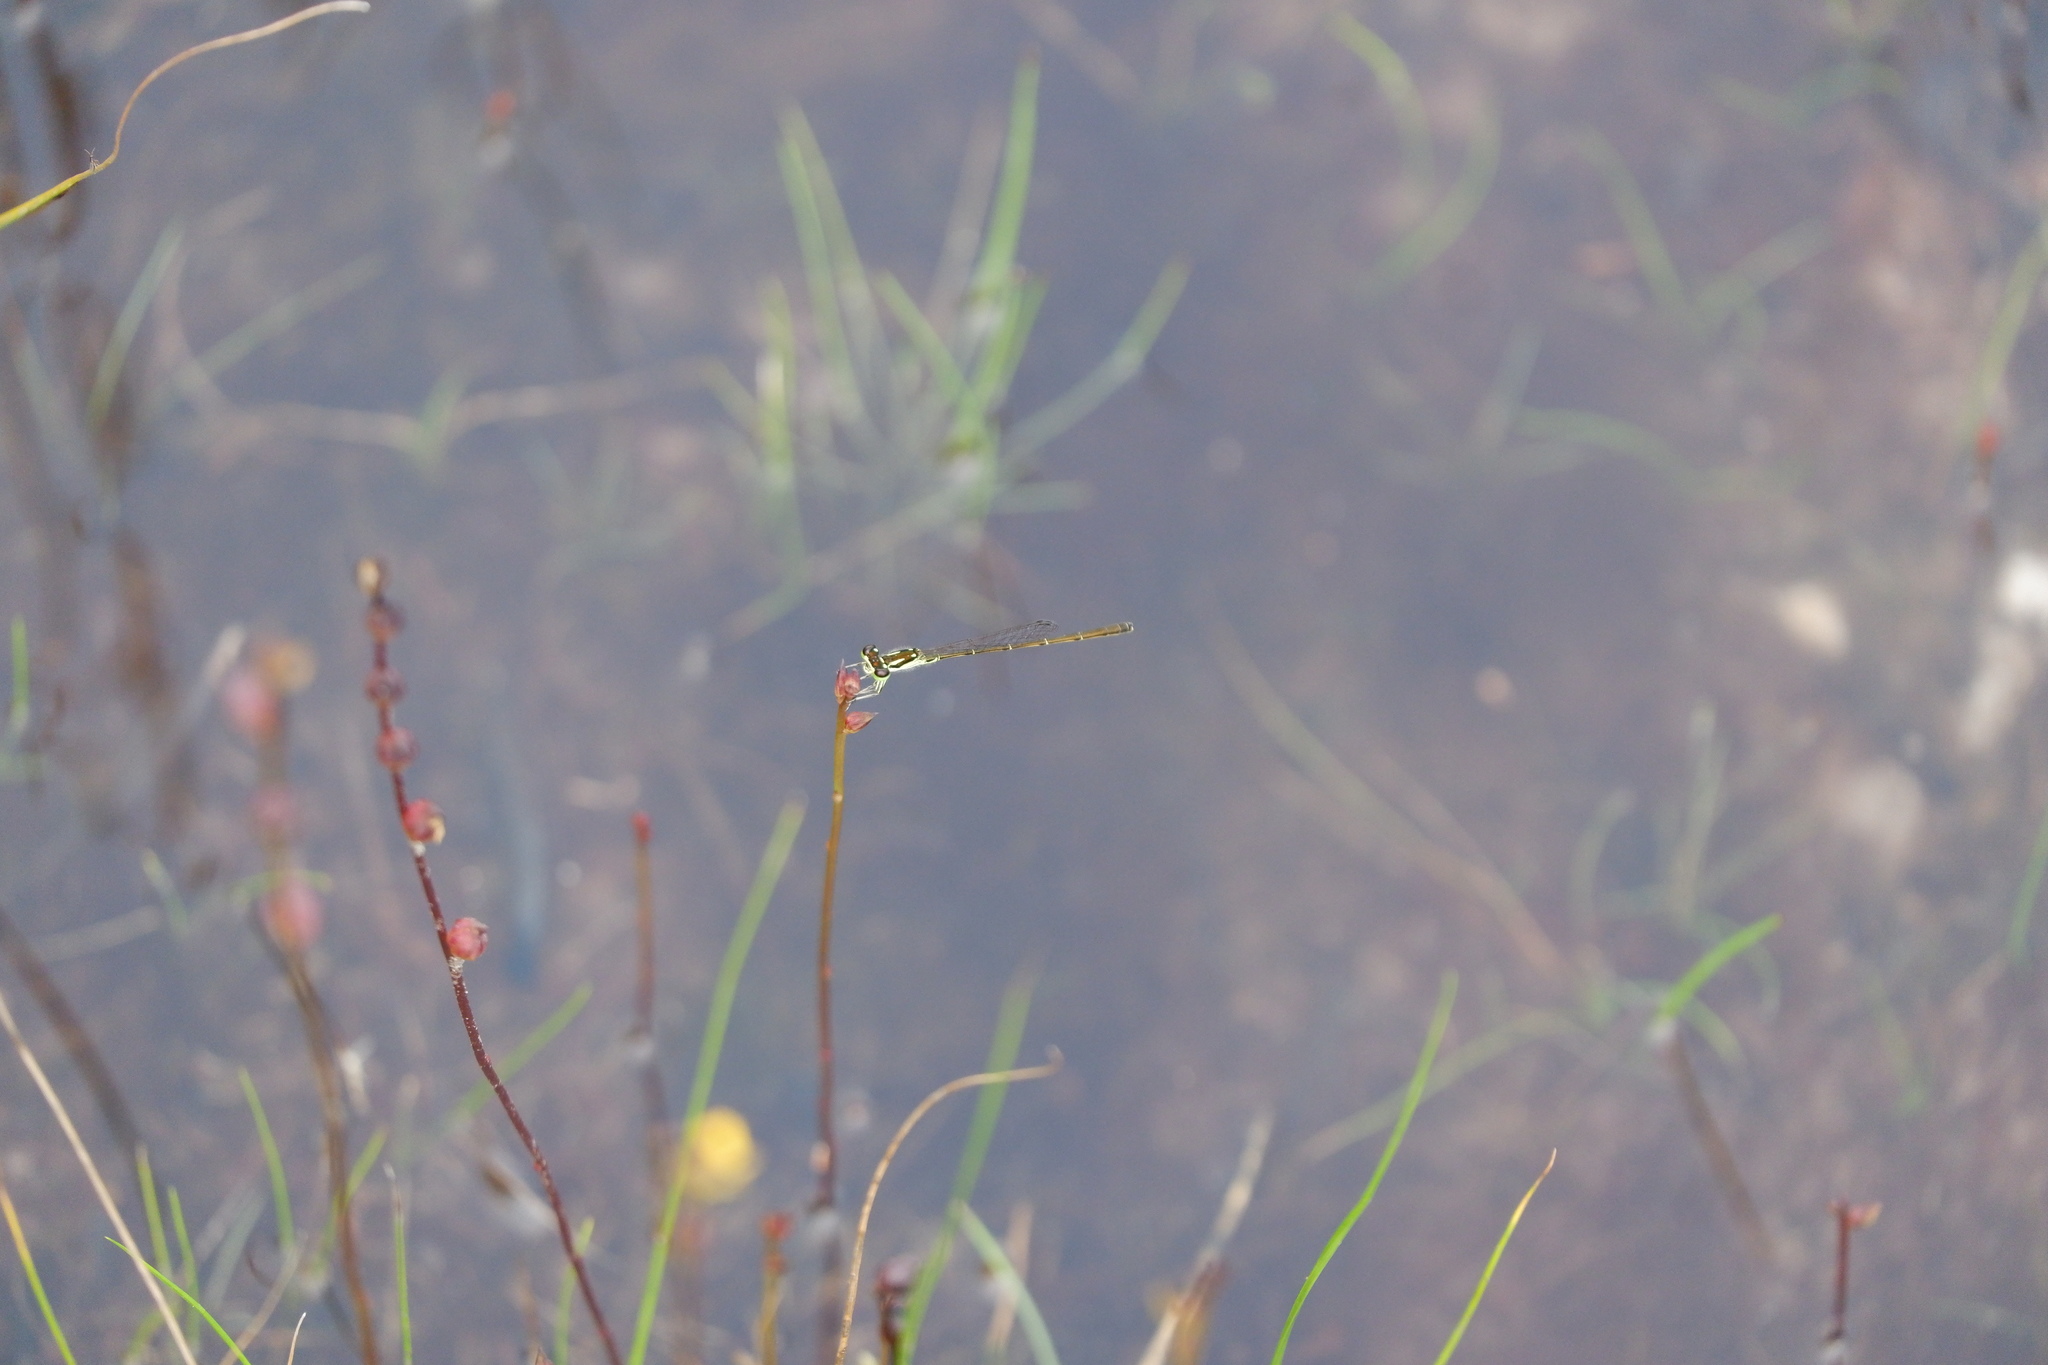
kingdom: Animalia
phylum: Arthropoda
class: Insecta
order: Odonata
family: Coenagrionidae
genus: Ischnura
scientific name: Ischnura posita
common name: Fragile forktail
